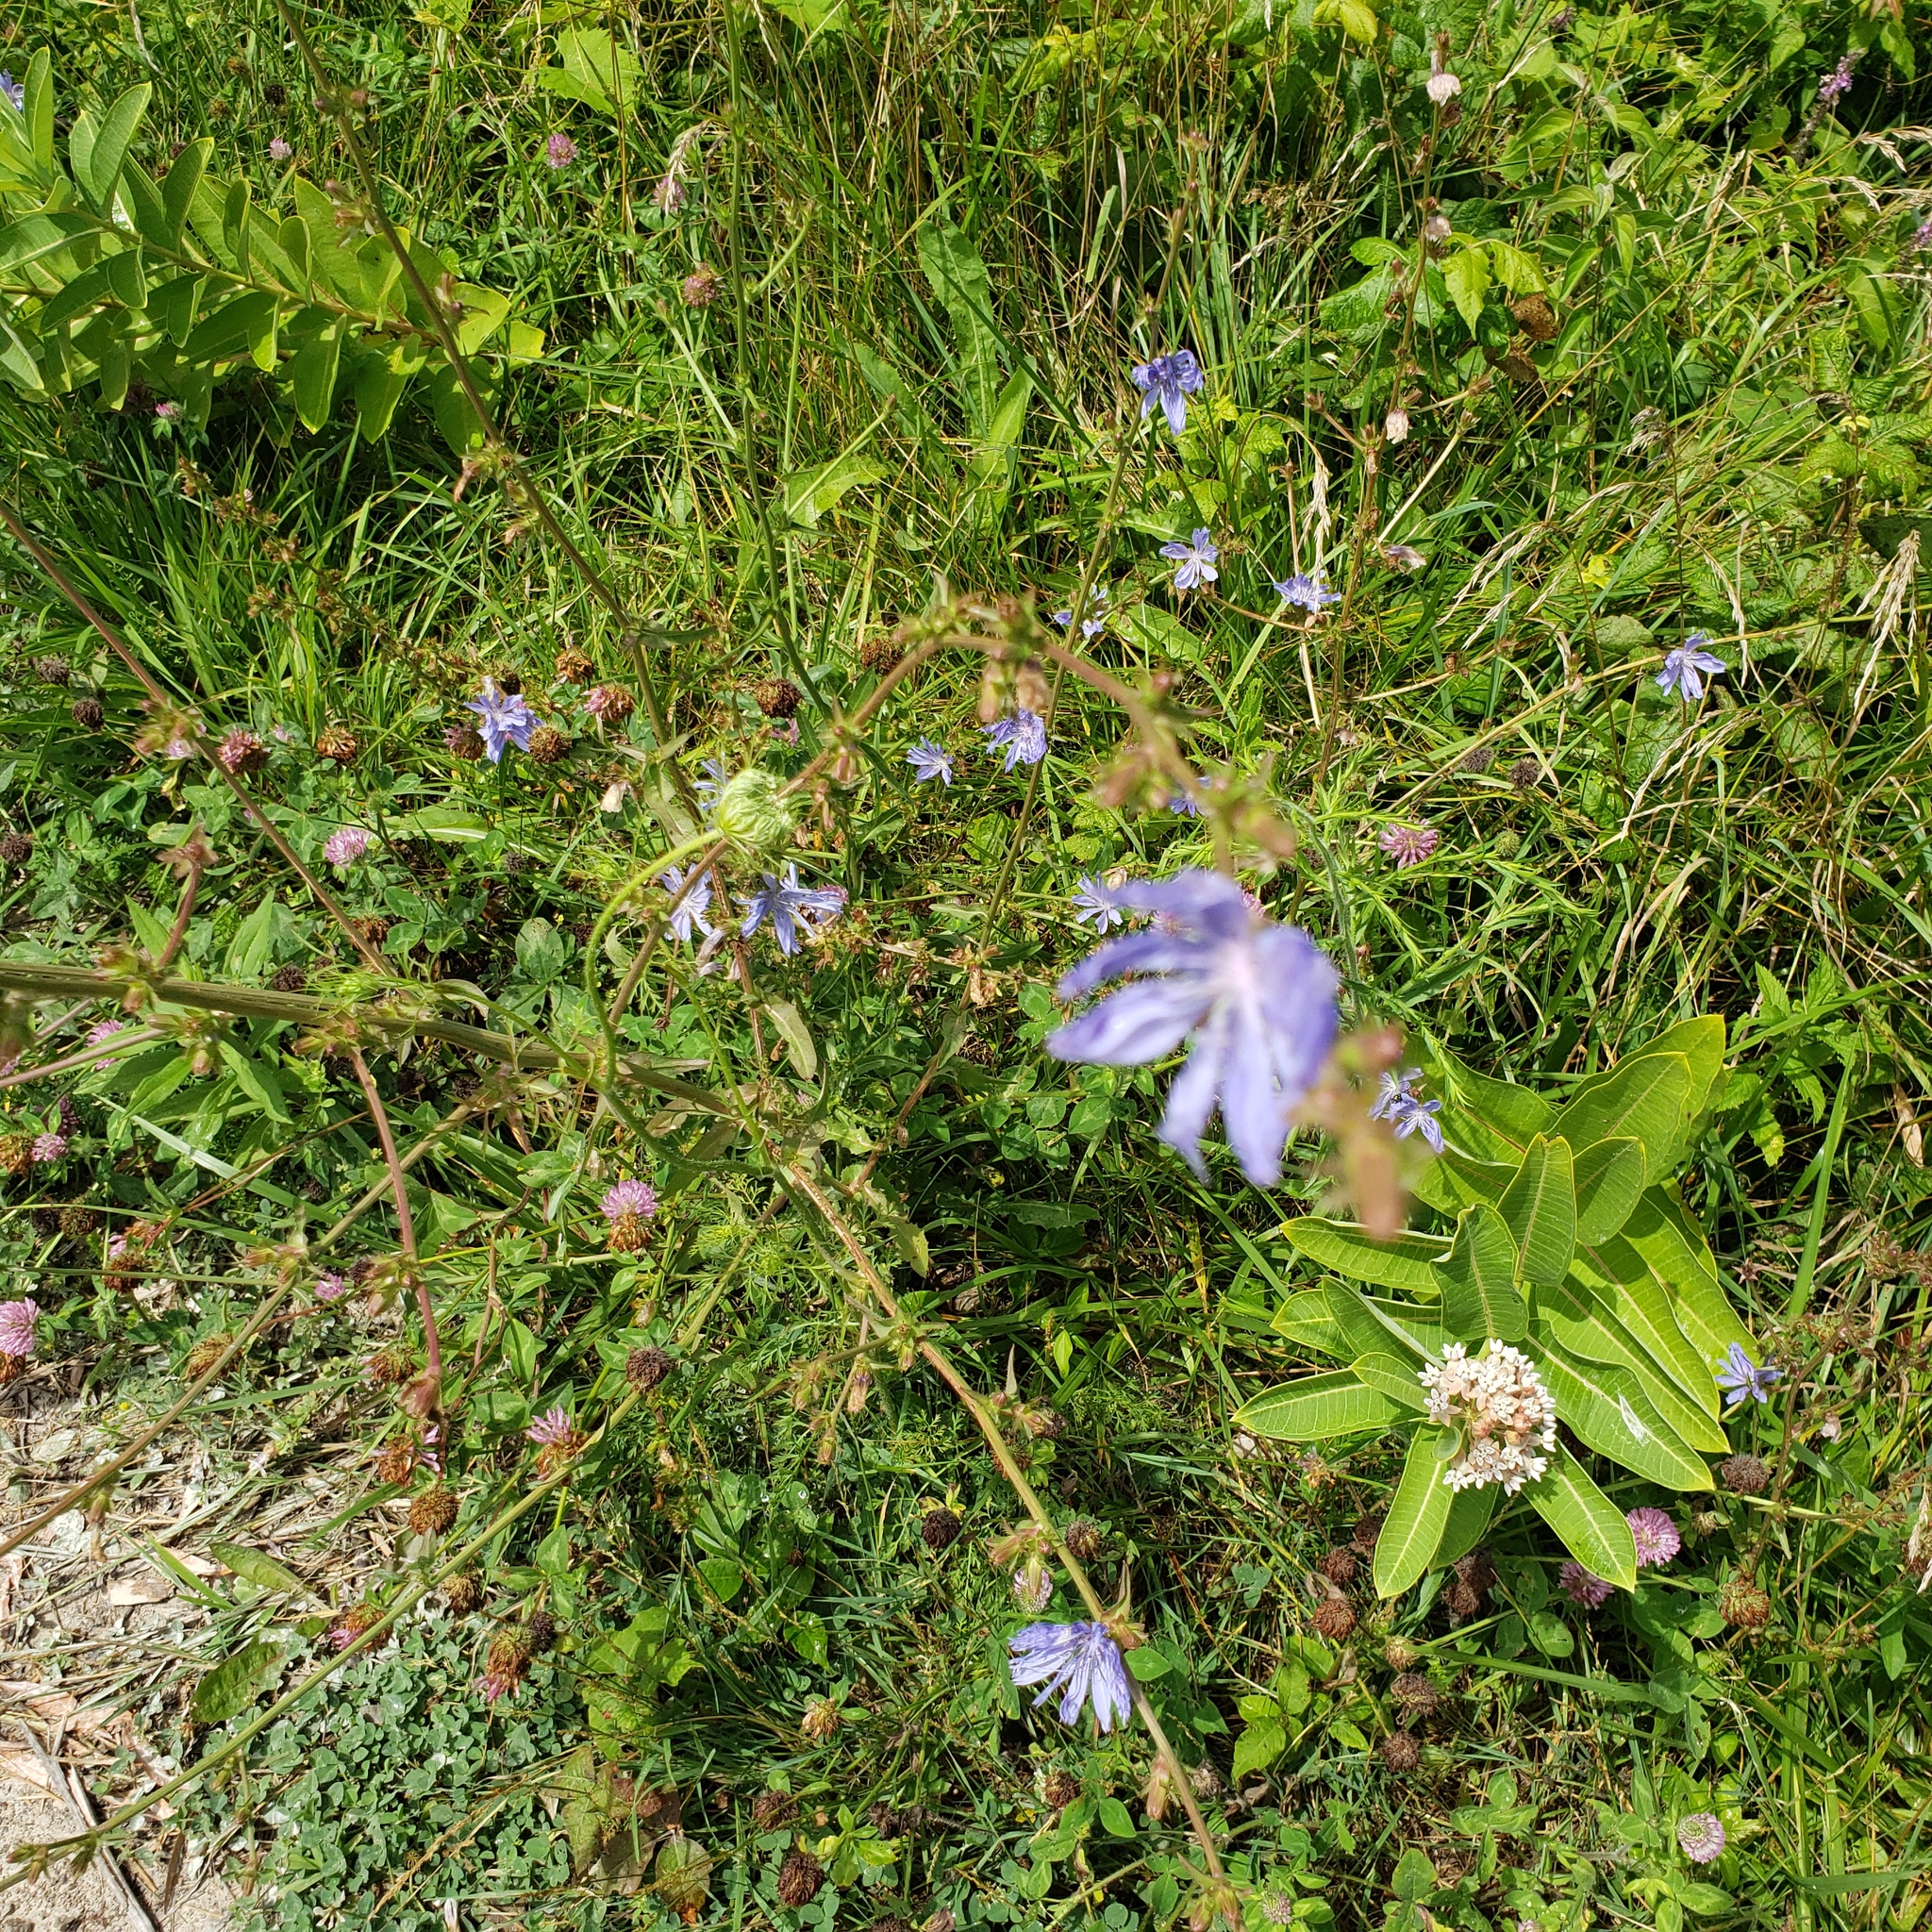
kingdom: Plantae
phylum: Tracheophyta
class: Magnoliopsida
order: Asterales
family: Asteraceae
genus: Cichorium
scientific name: Cichorium intybus
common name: Chicory
